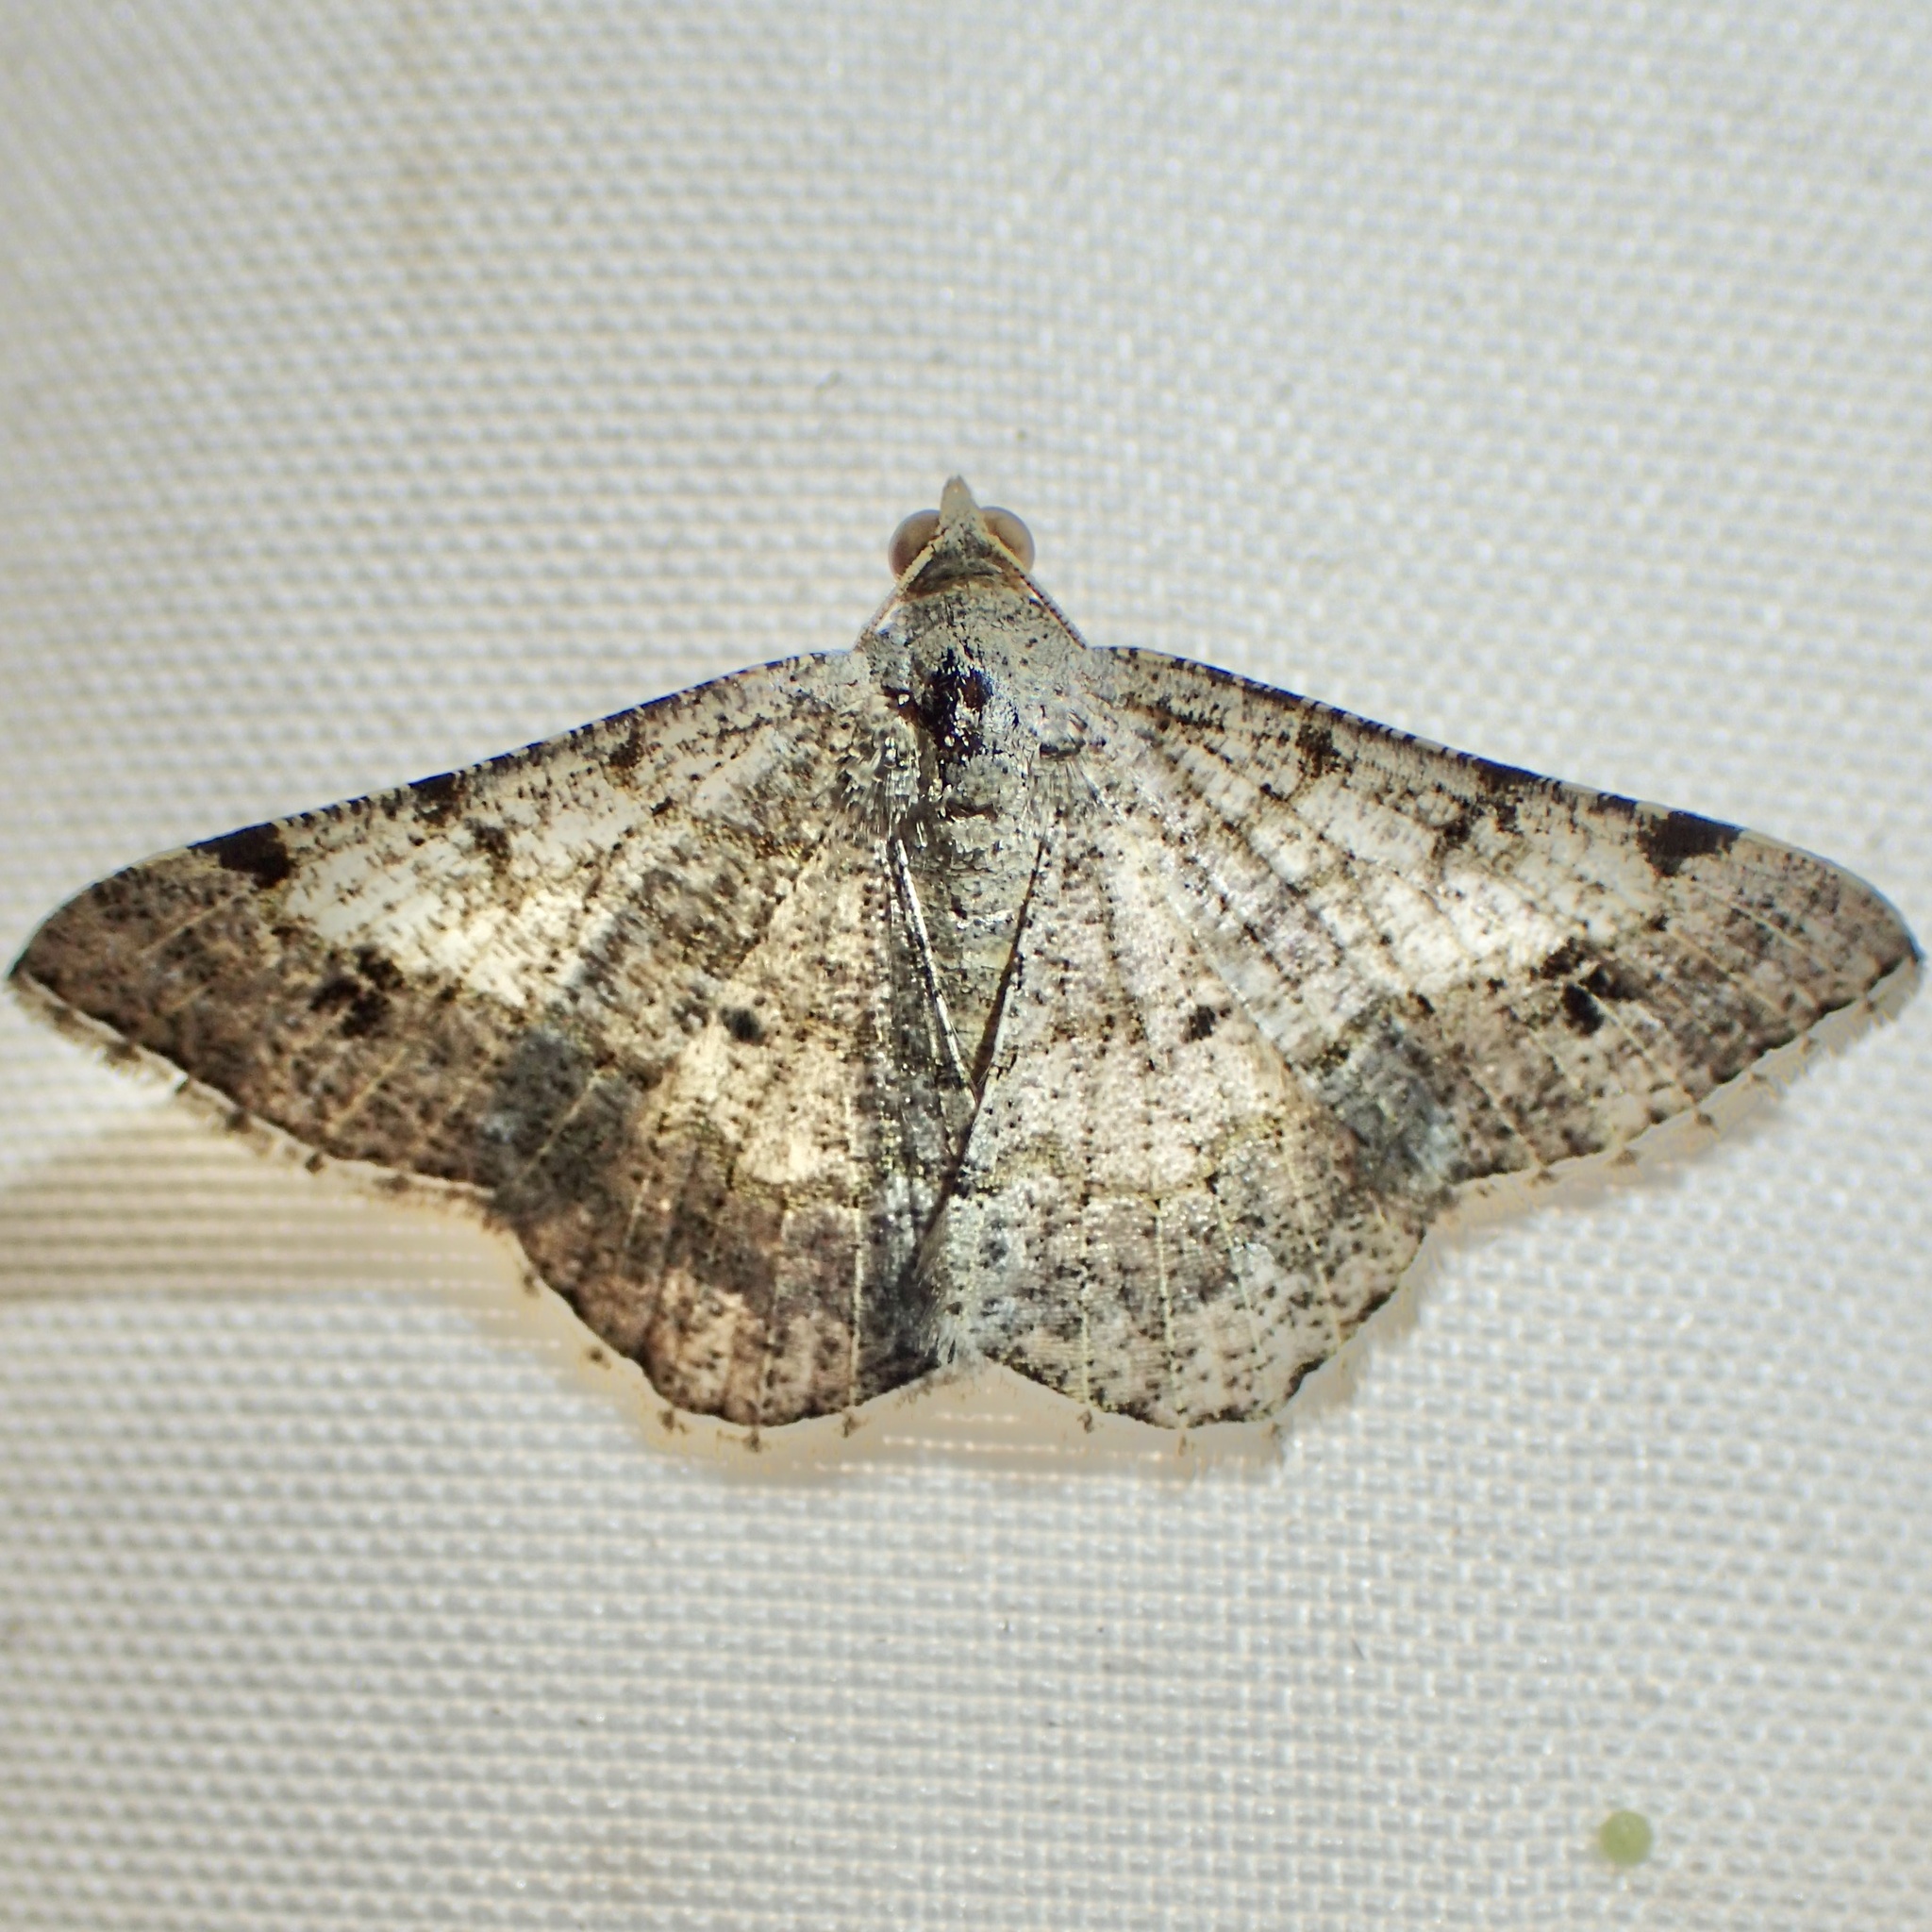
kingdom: Animalia
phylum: Arthropoda
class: Insecta
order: Lepidoptera
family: Geometridae
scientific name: Geometridae
